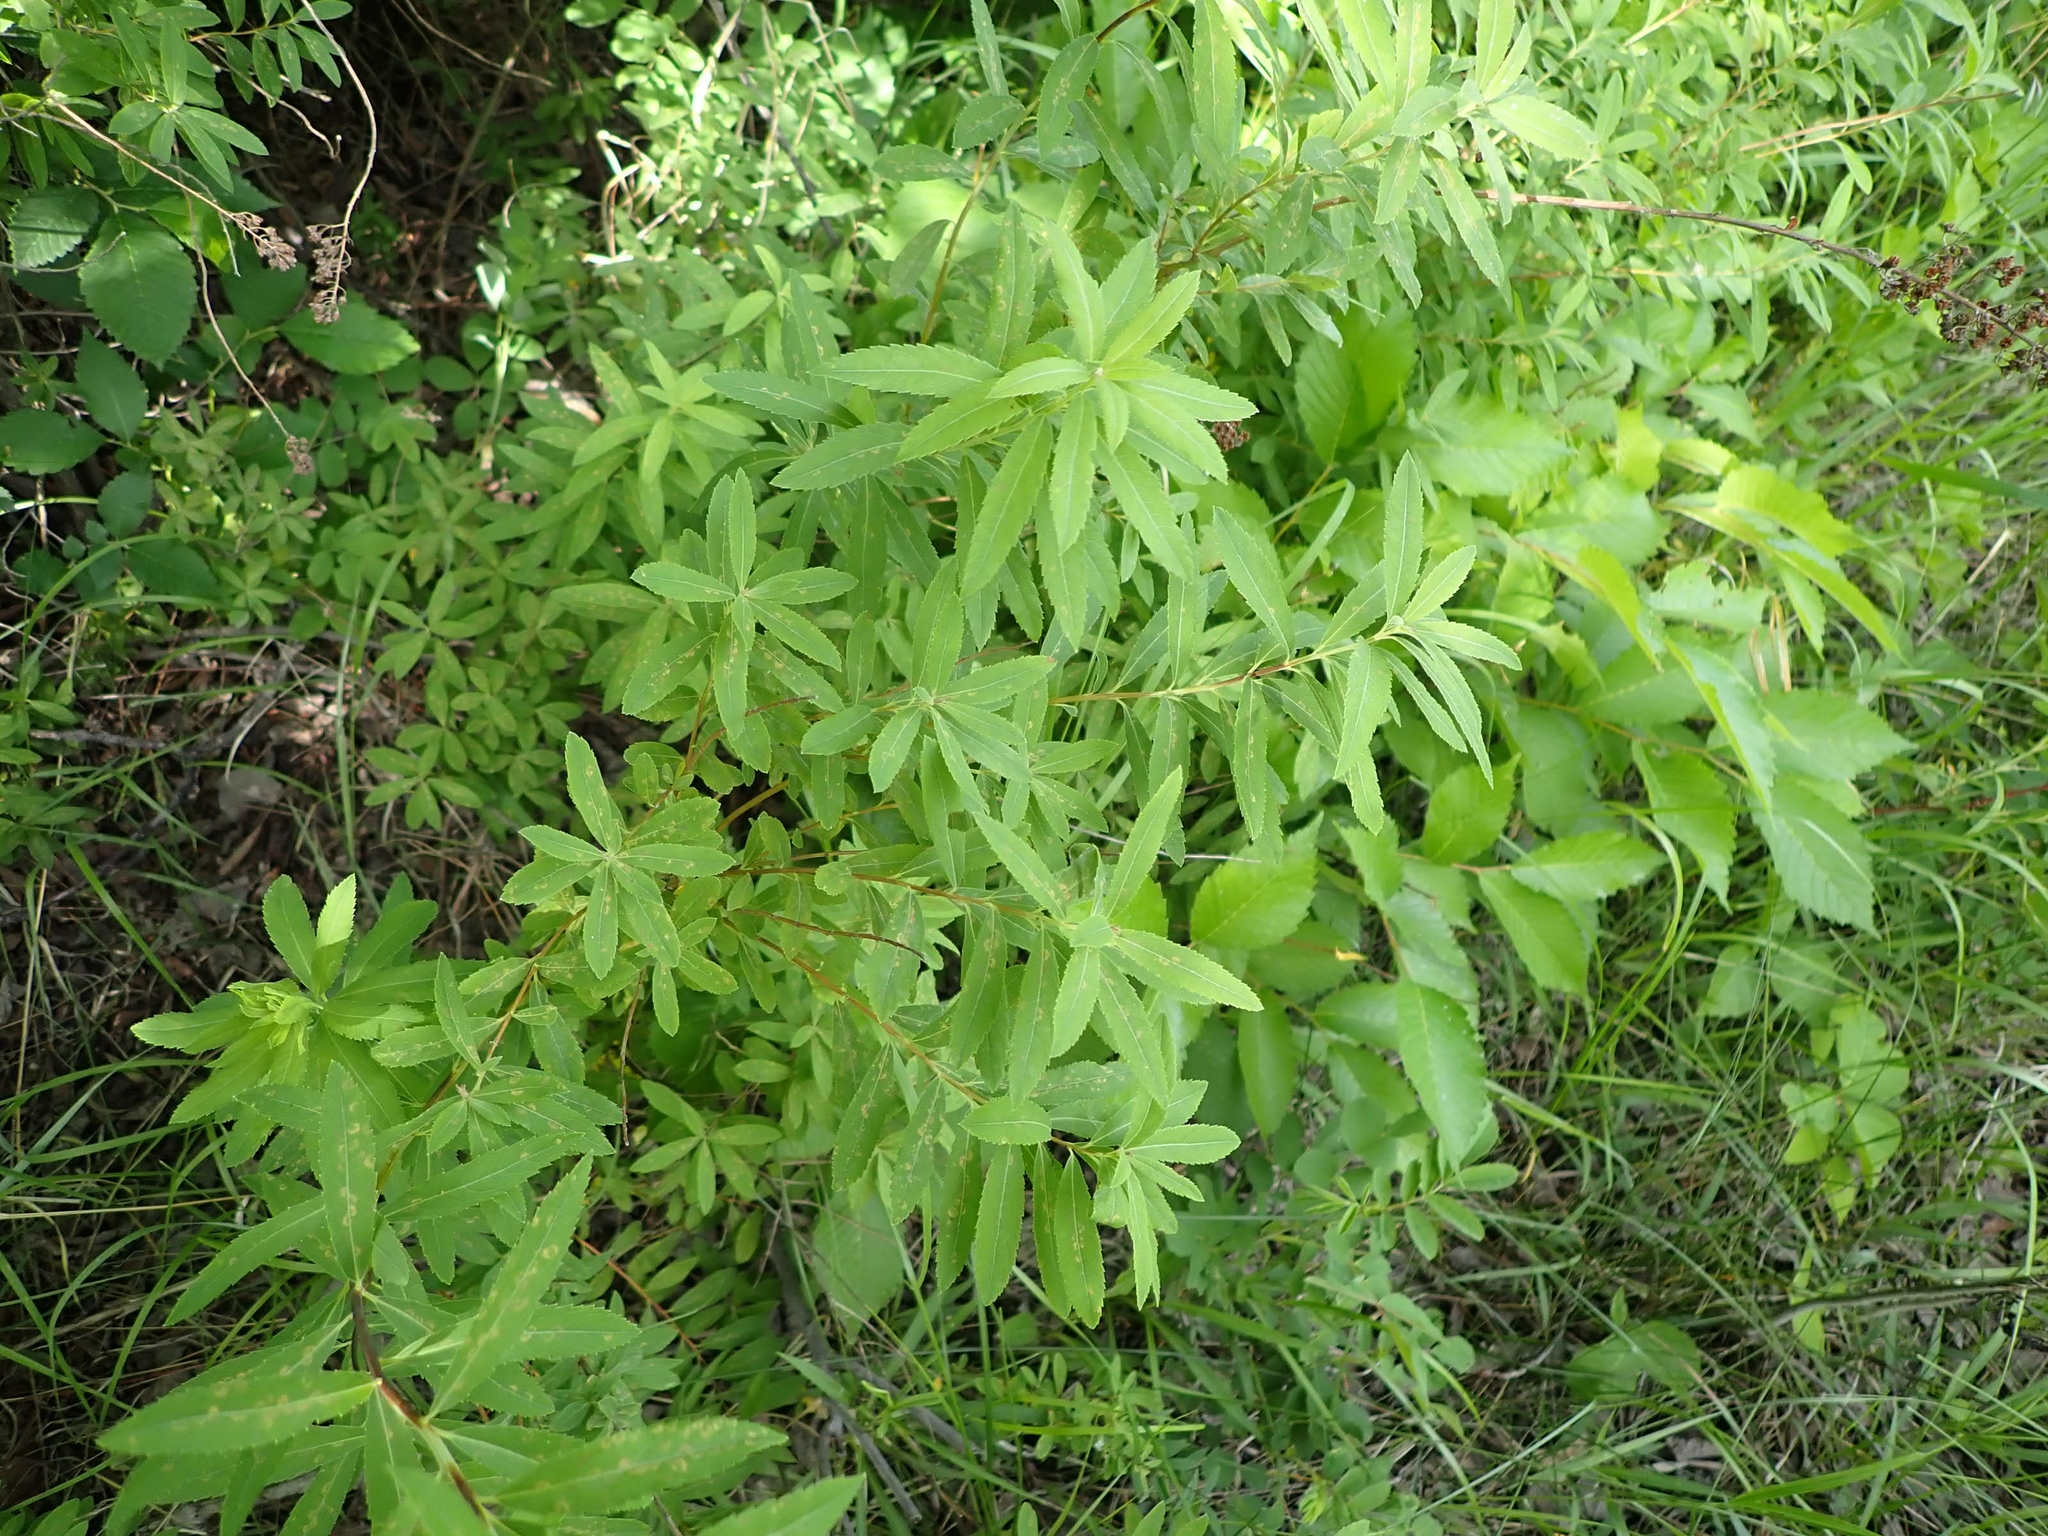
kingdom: Plantae
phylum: Tracheophyta
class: Magnoliopsida
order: Rosales
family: Rosaceae
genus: Spiraea
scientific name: Spiraea alba
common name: Pale bridewort
